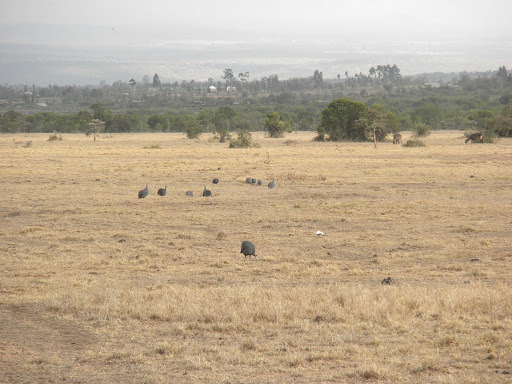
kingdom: Animalia
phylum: Chordata
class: Aves
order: Galliformes
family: Numididae
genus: Numida
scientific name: Numida meleagris
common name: Helmeted guineafowl
